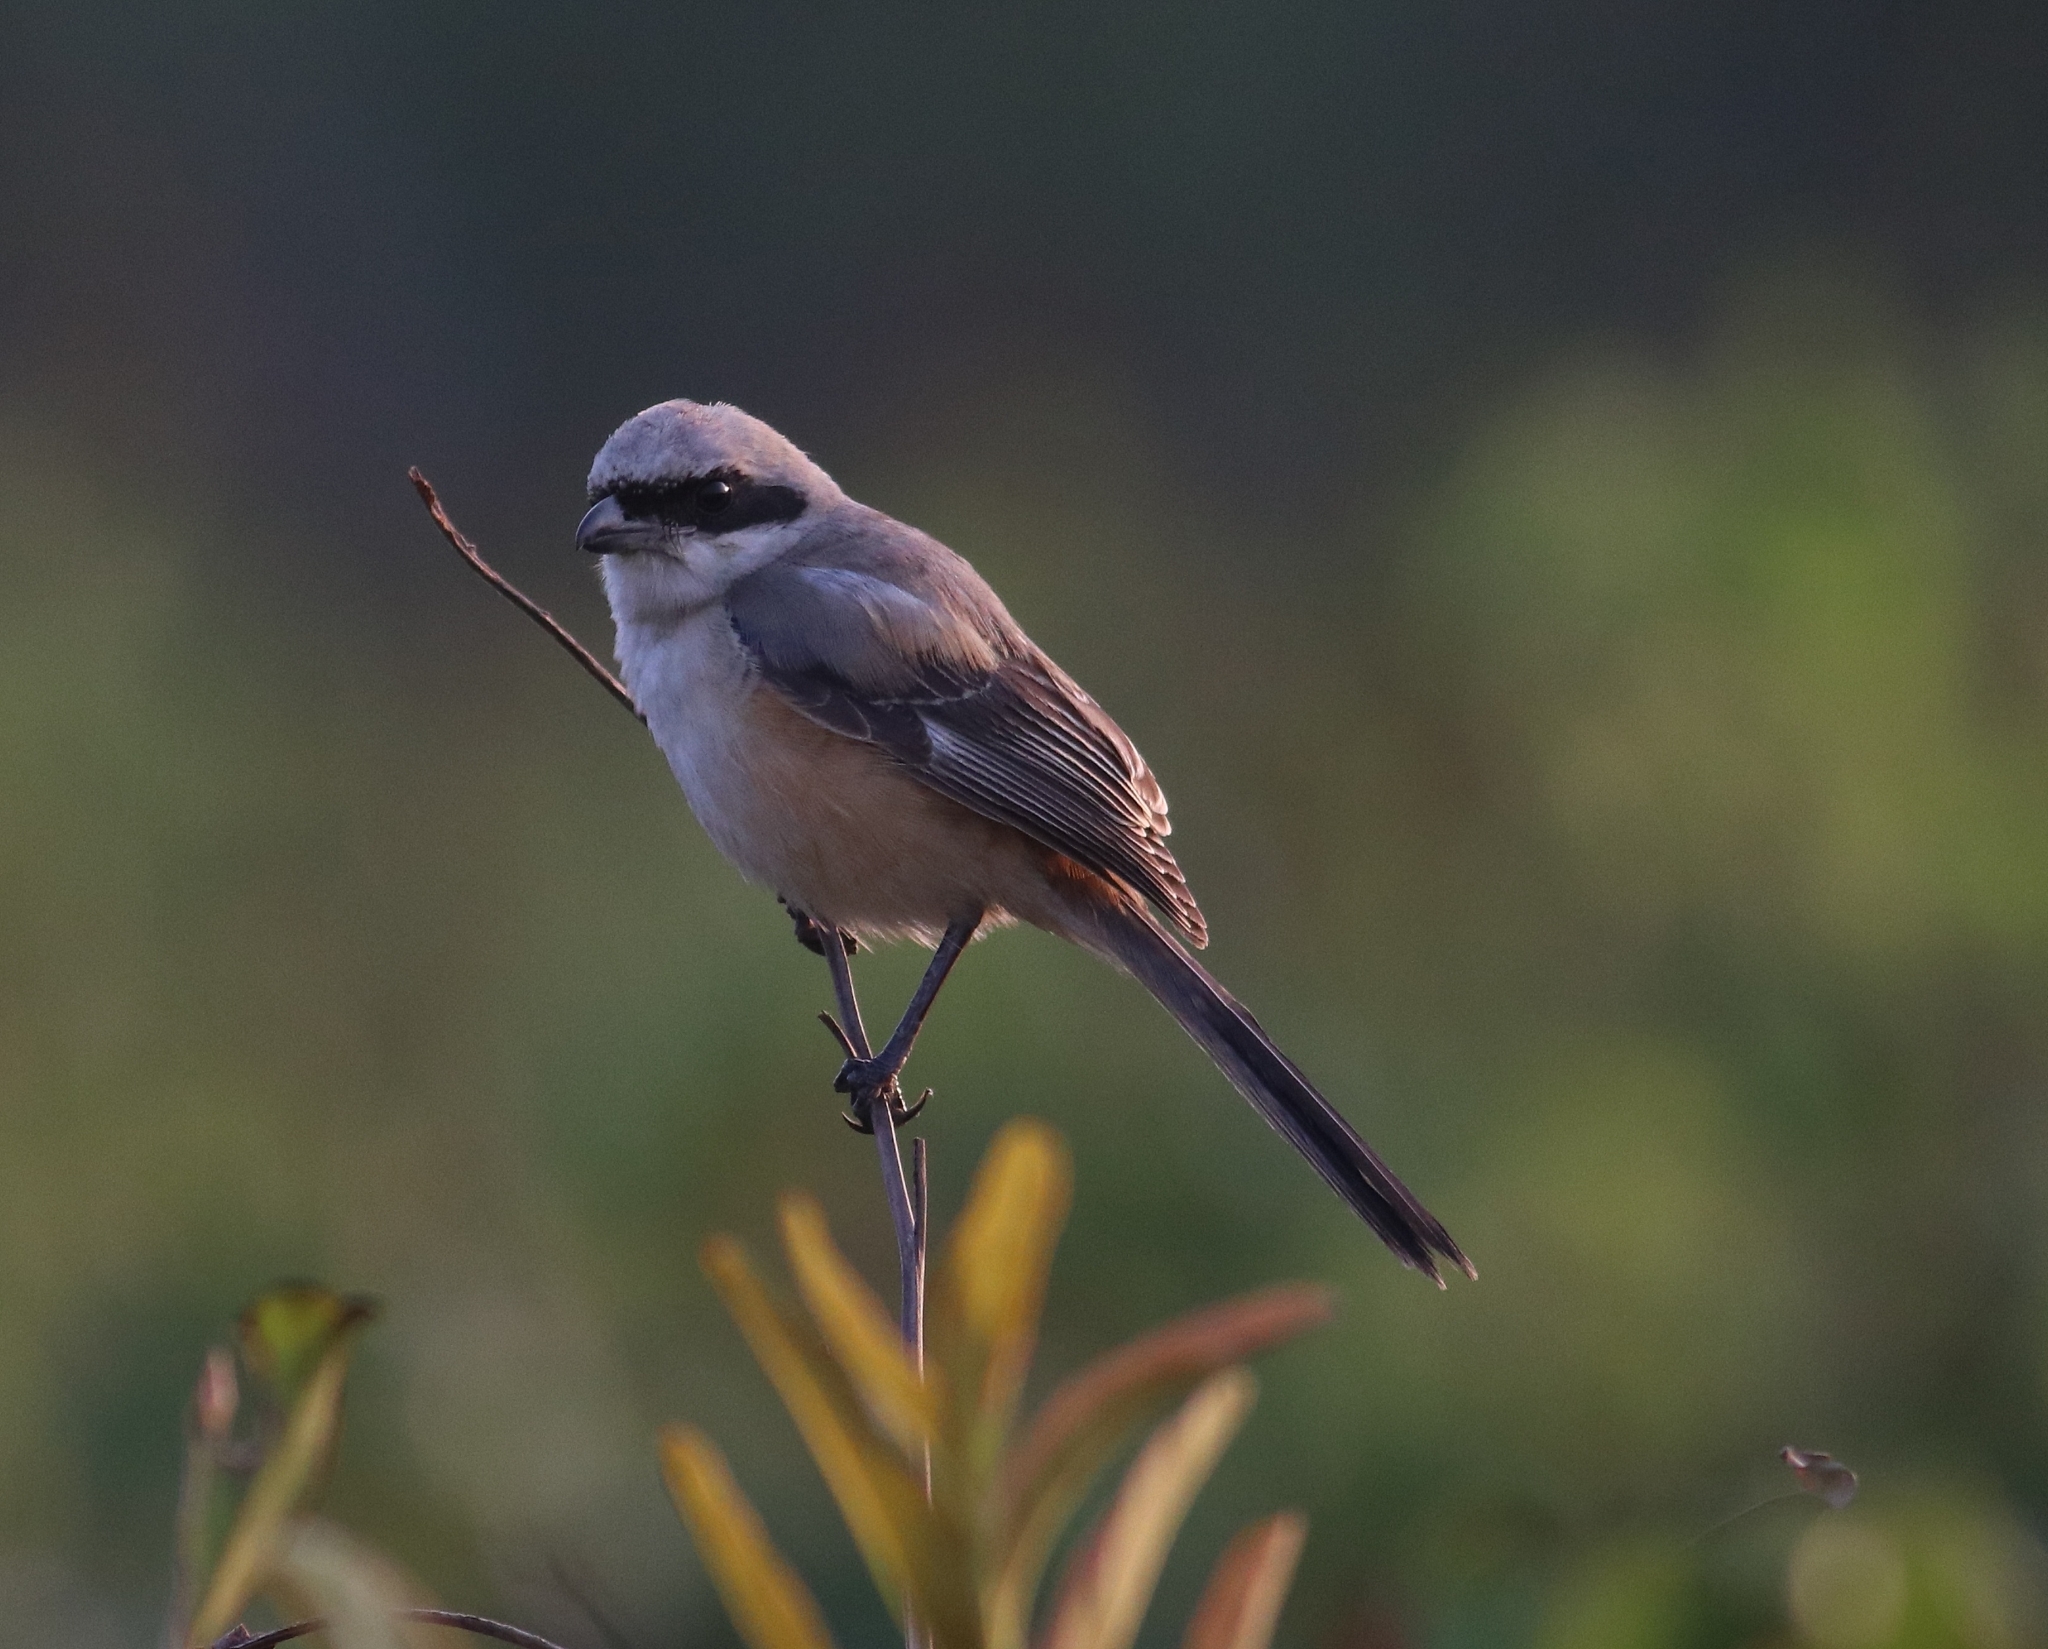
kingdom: Animalia
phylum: Chordata
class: Aves
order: Passeriformes
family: Laniidae
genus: Lanius
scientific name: Lanius schach
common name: Long-tailed shrike
